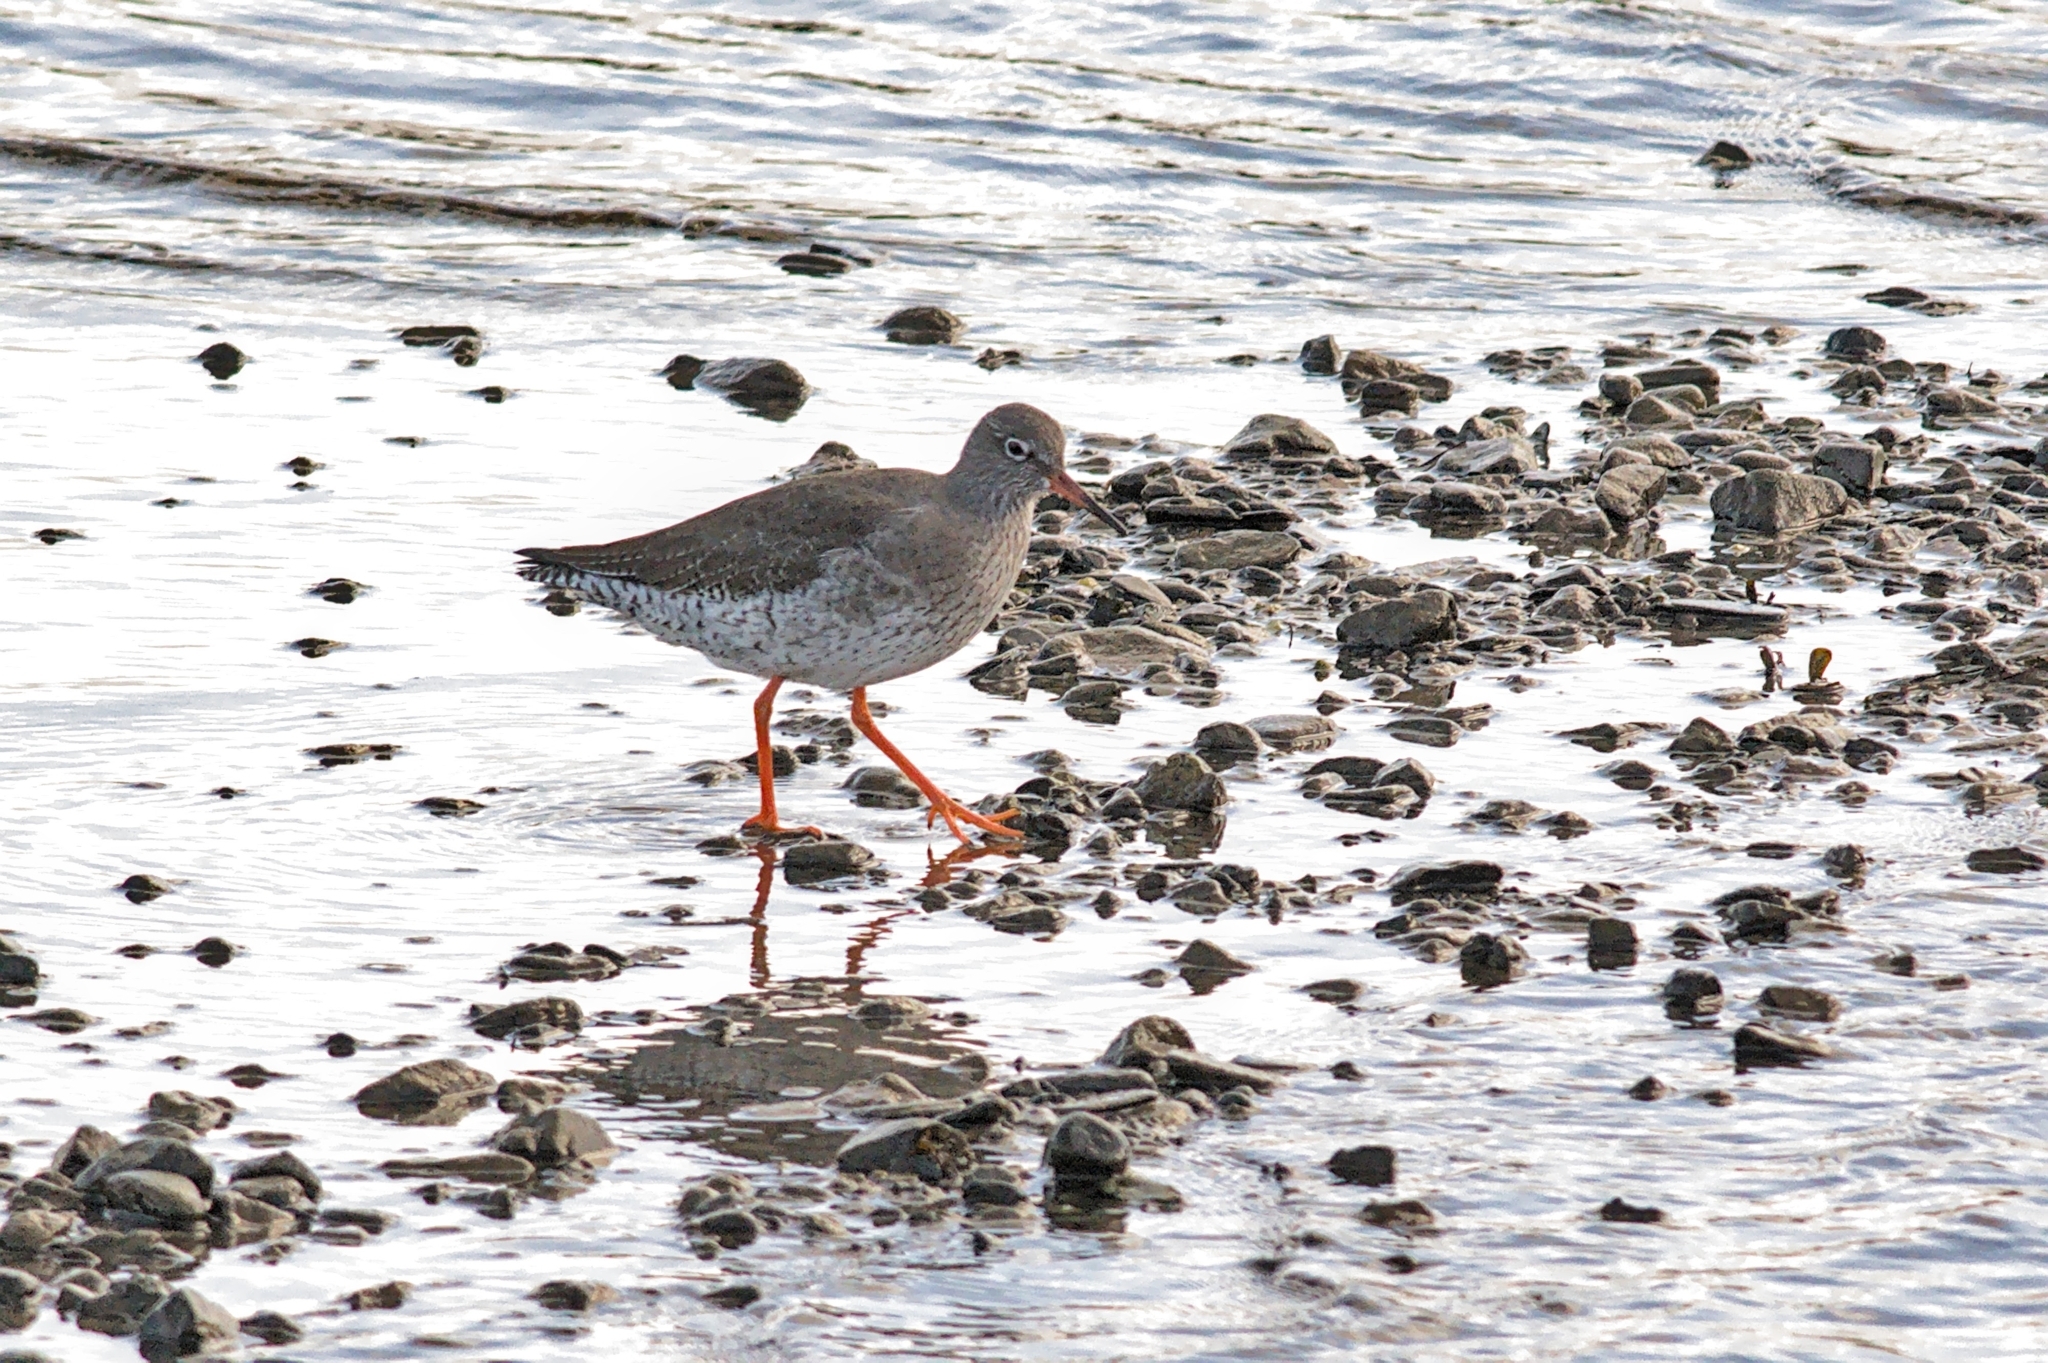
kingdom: Animalia
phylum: Chordata
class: Aves
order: Charadriiformes
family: Scolopacidae
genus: Tringa
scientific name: Tringa totanus
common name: Common redshank
